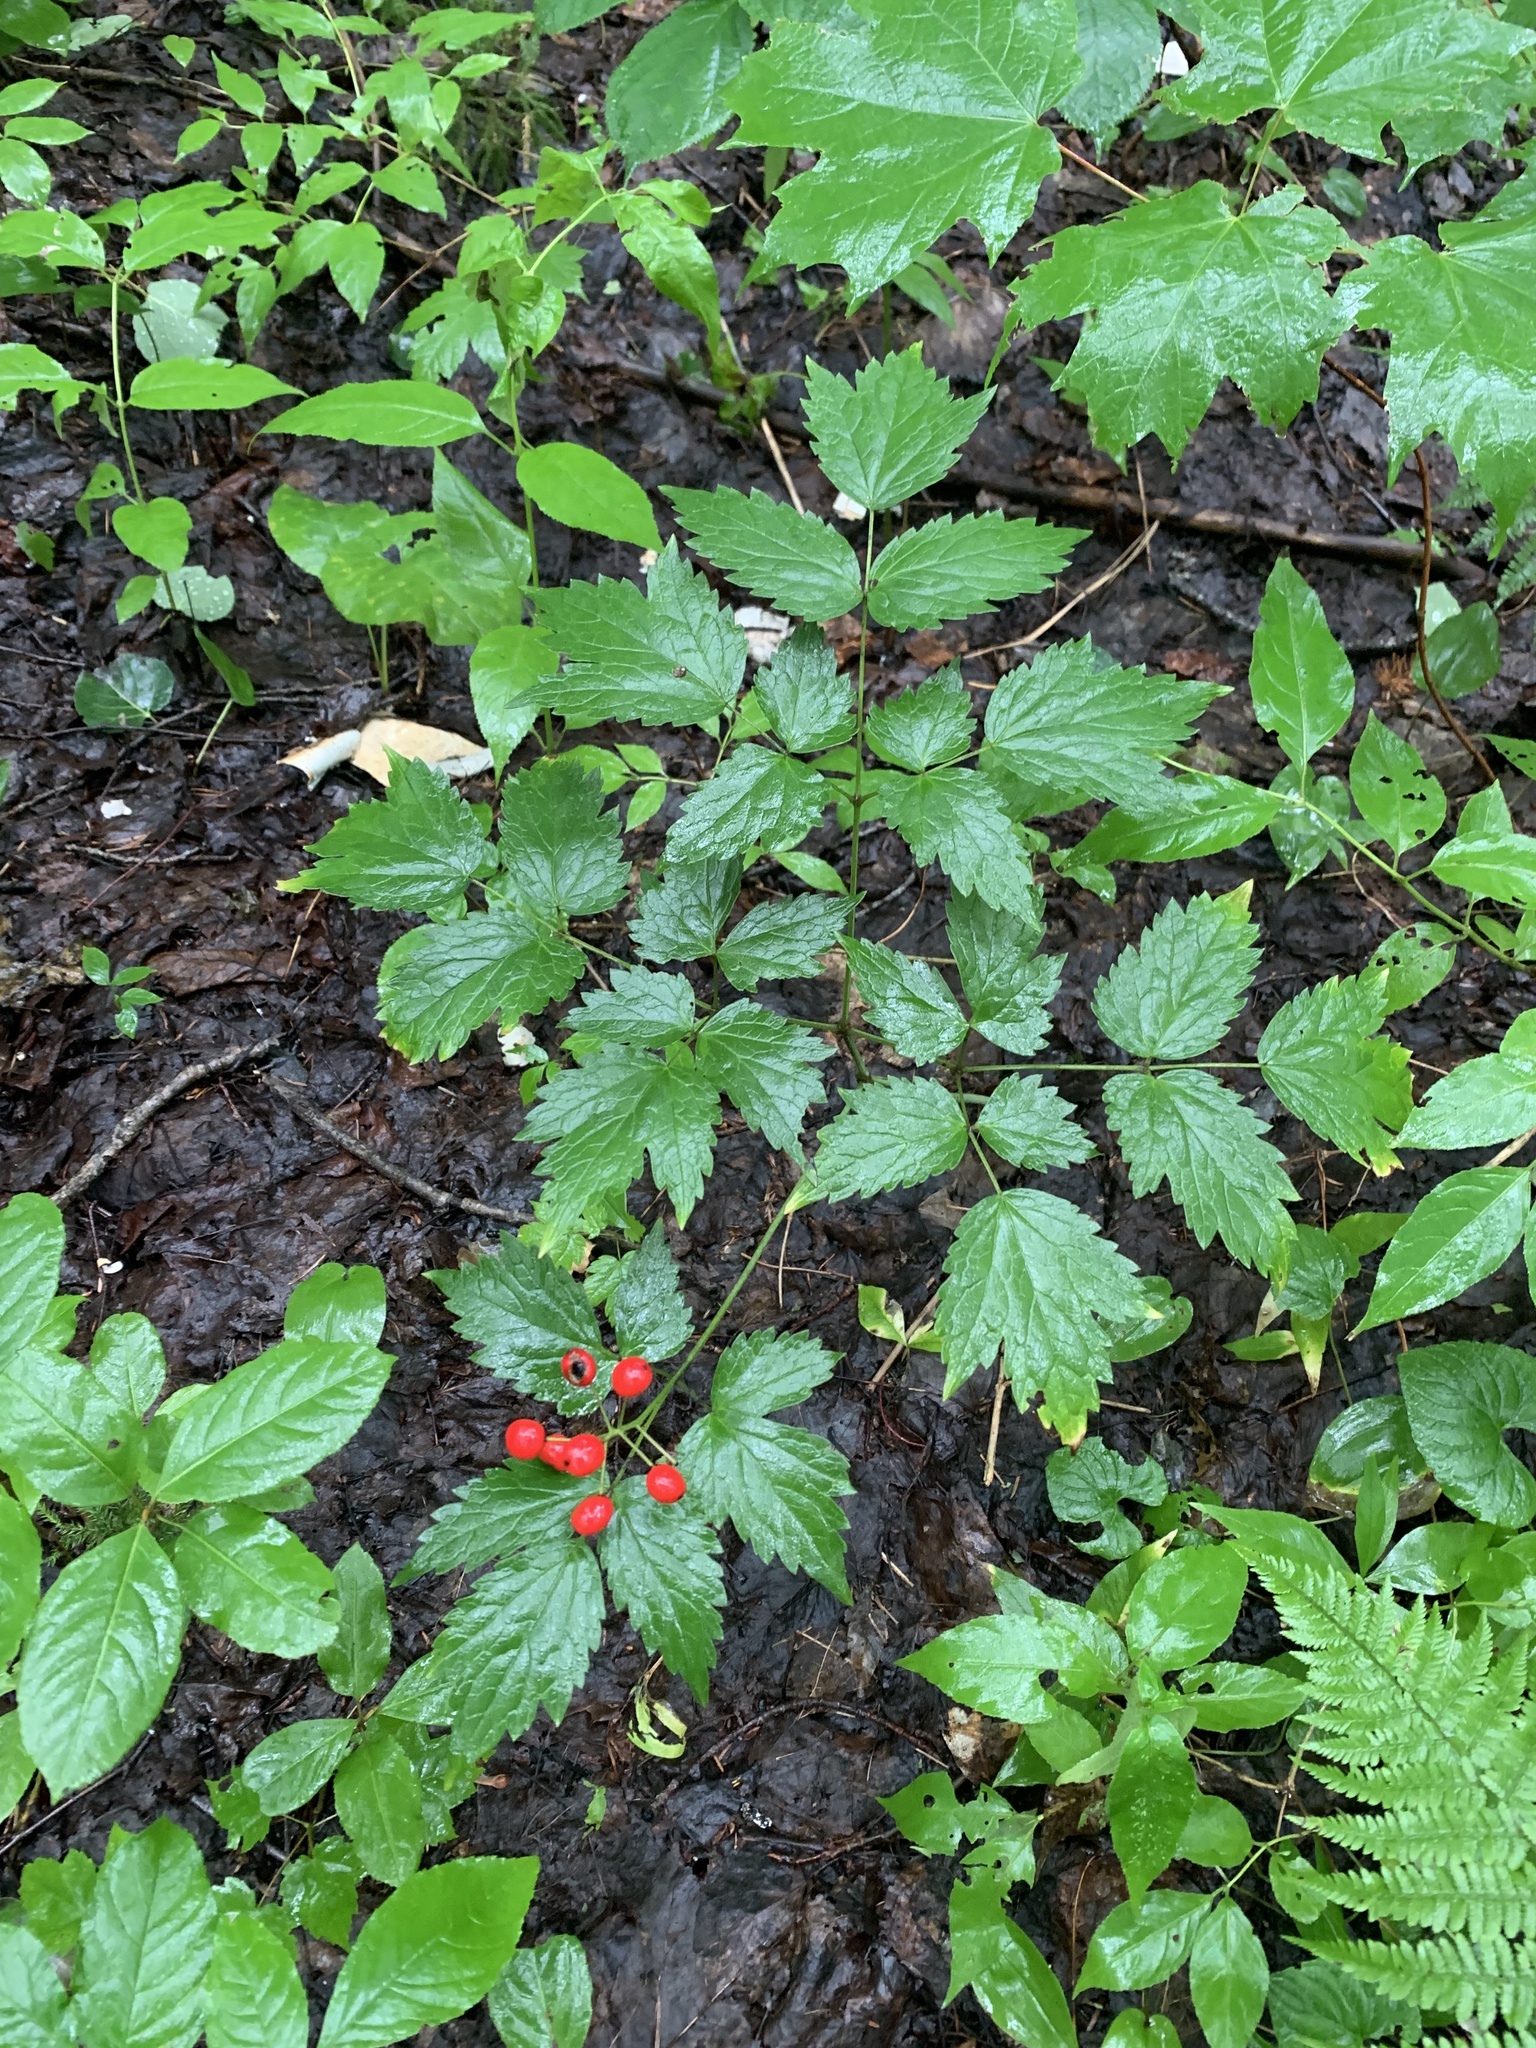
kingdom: Plantae
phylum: Tracheophyta
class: Magnoliopsida
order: Ranunculales
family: Ranunculaceae
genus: Actaea
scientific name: Actaea rubra
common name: Red baneberry
